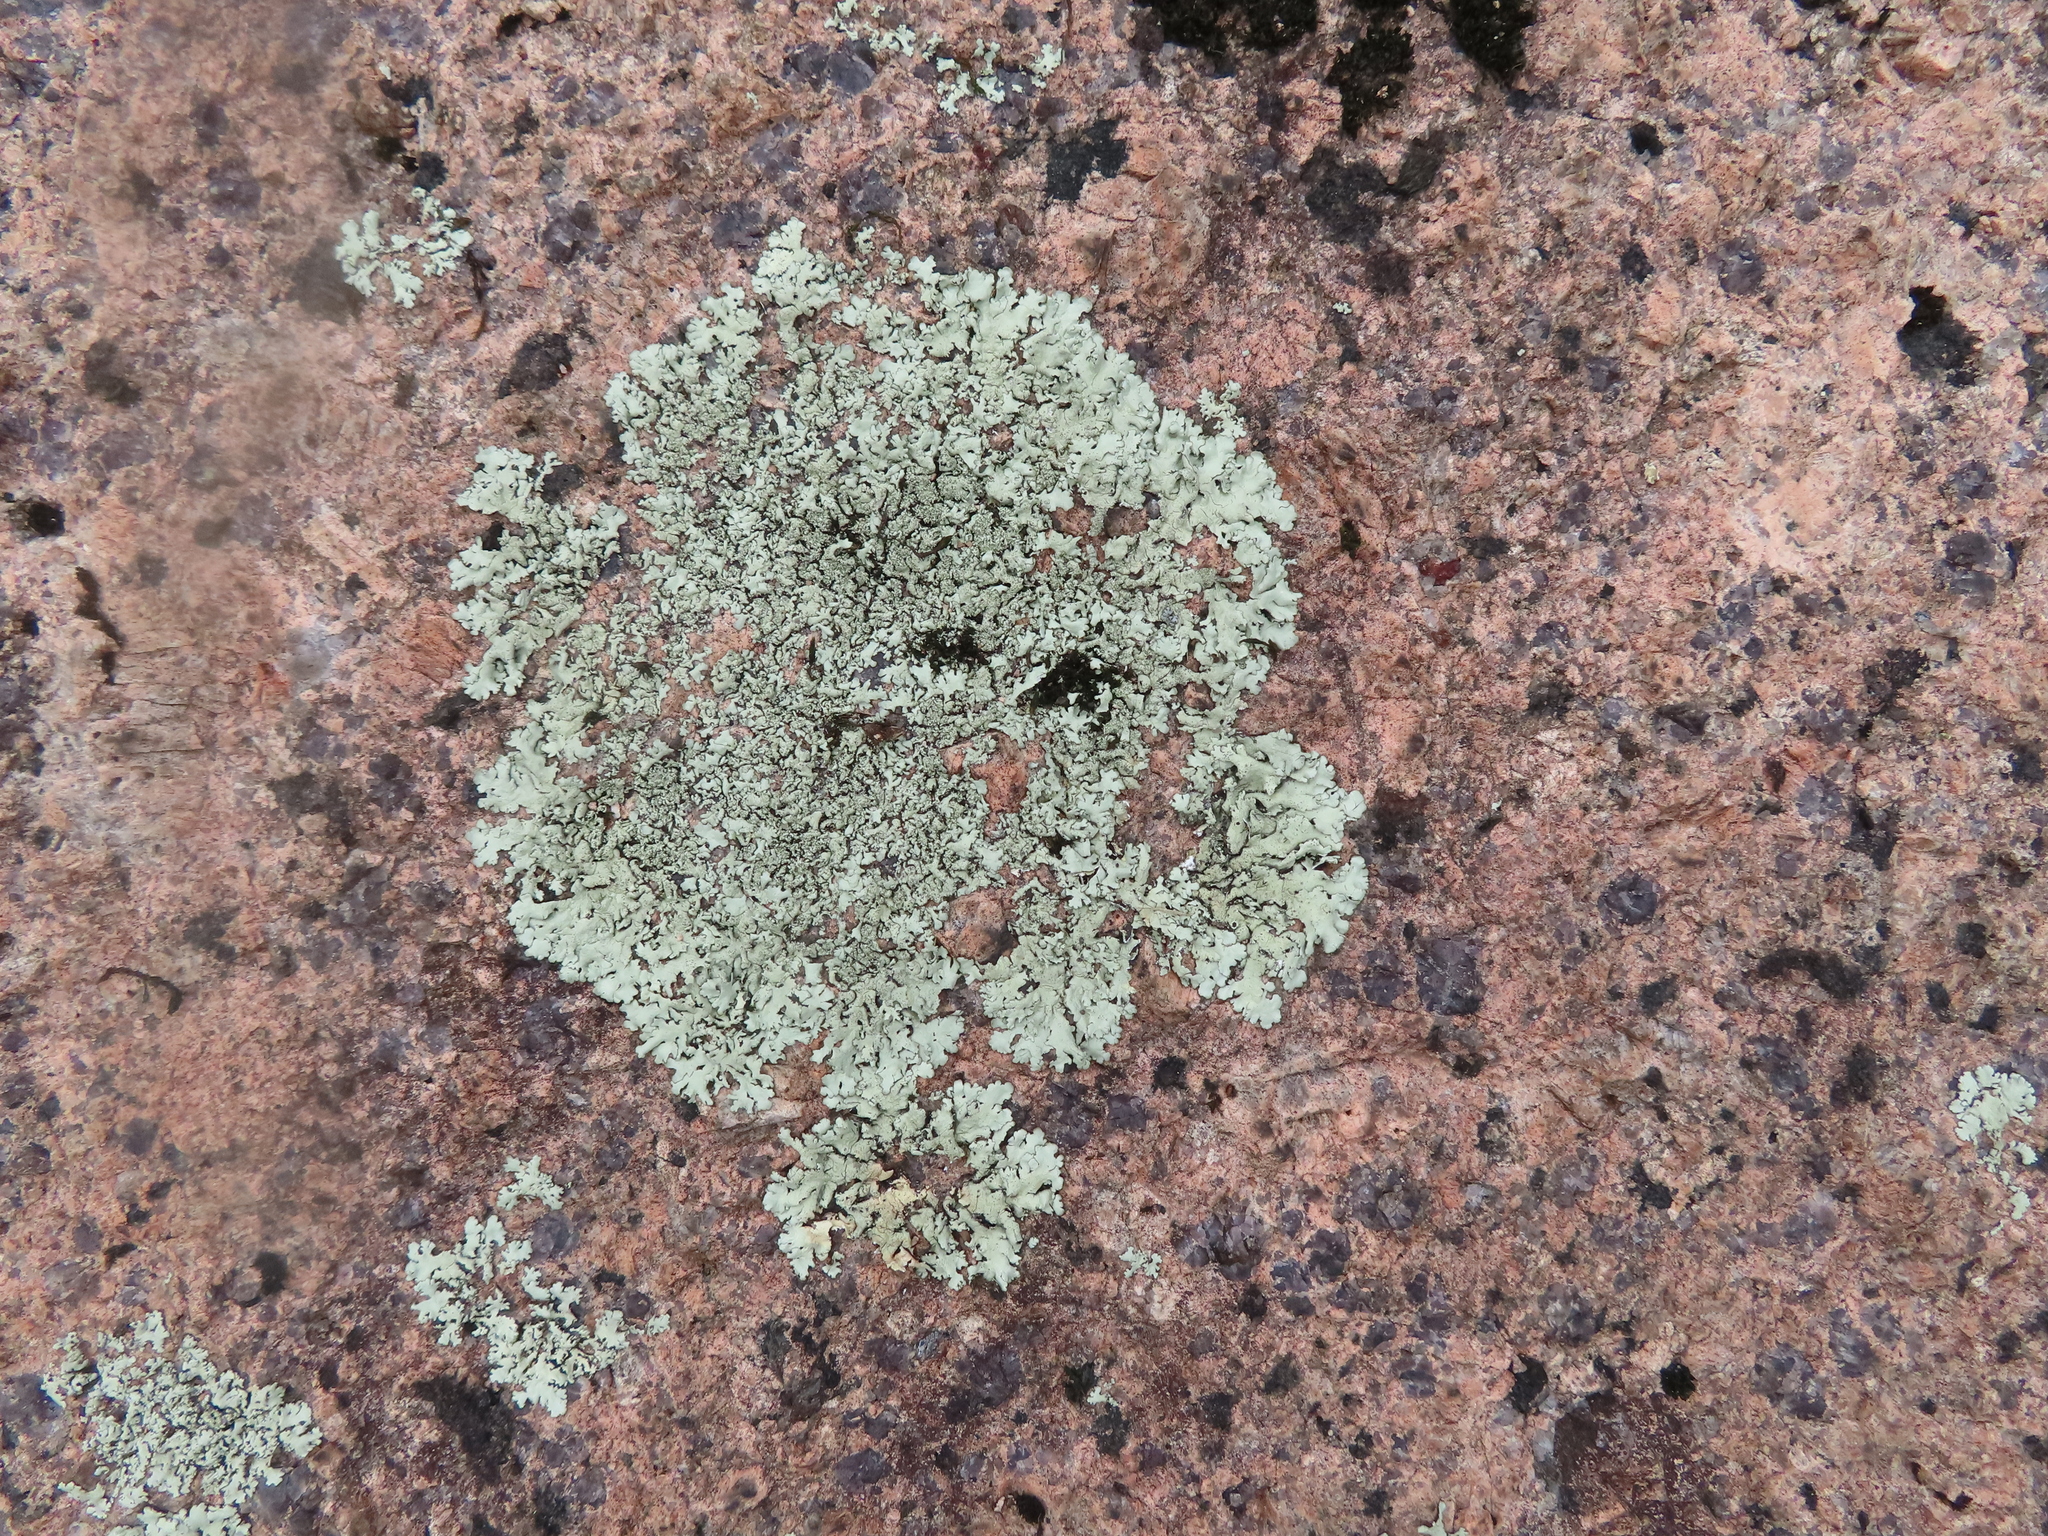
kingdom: Fungi
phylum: Ascomycota
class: Lecanoromycetes
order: Lecanorales
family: Parmeliaceae
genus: Xanthoparmelia
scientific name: Xanthoparmelia
